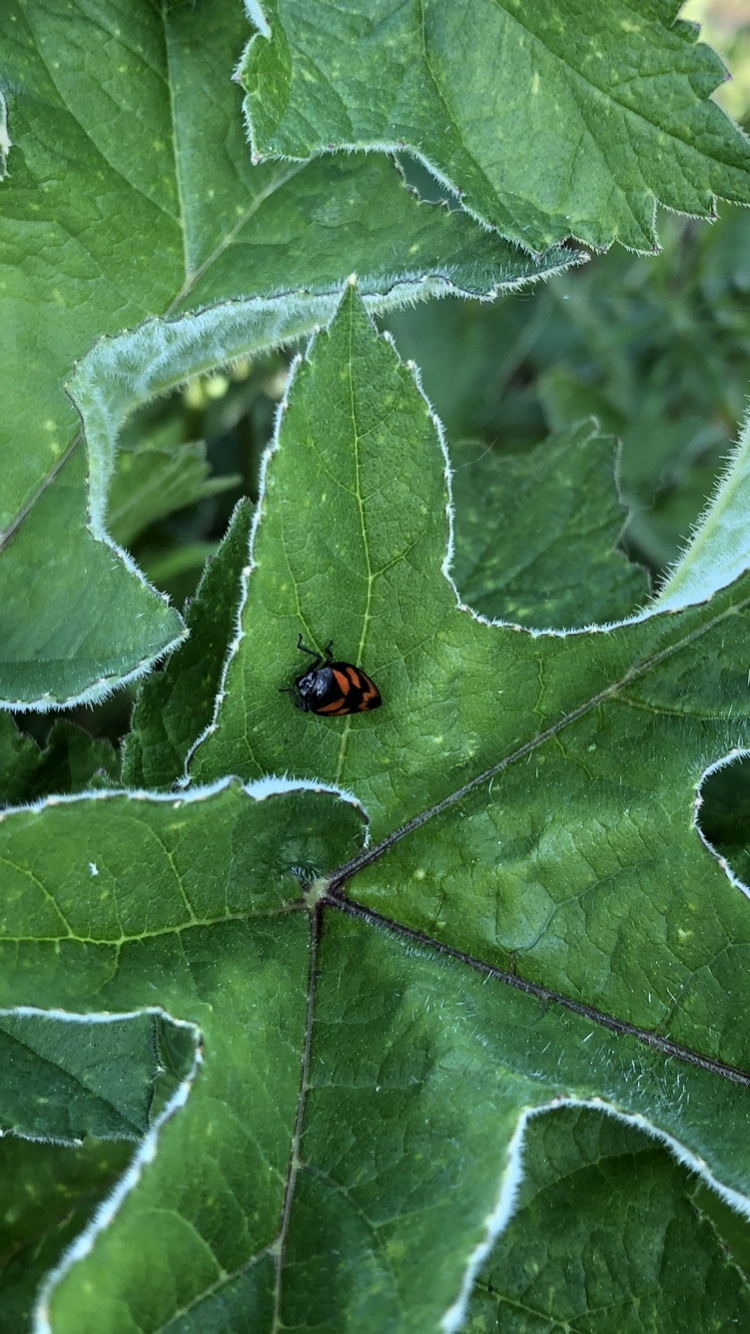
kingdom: Animalia
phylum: Arthropoda
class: Insecta
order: Hemiptera
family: Cercopidae
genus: Cercopis
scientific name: Cercopis vulnerata
